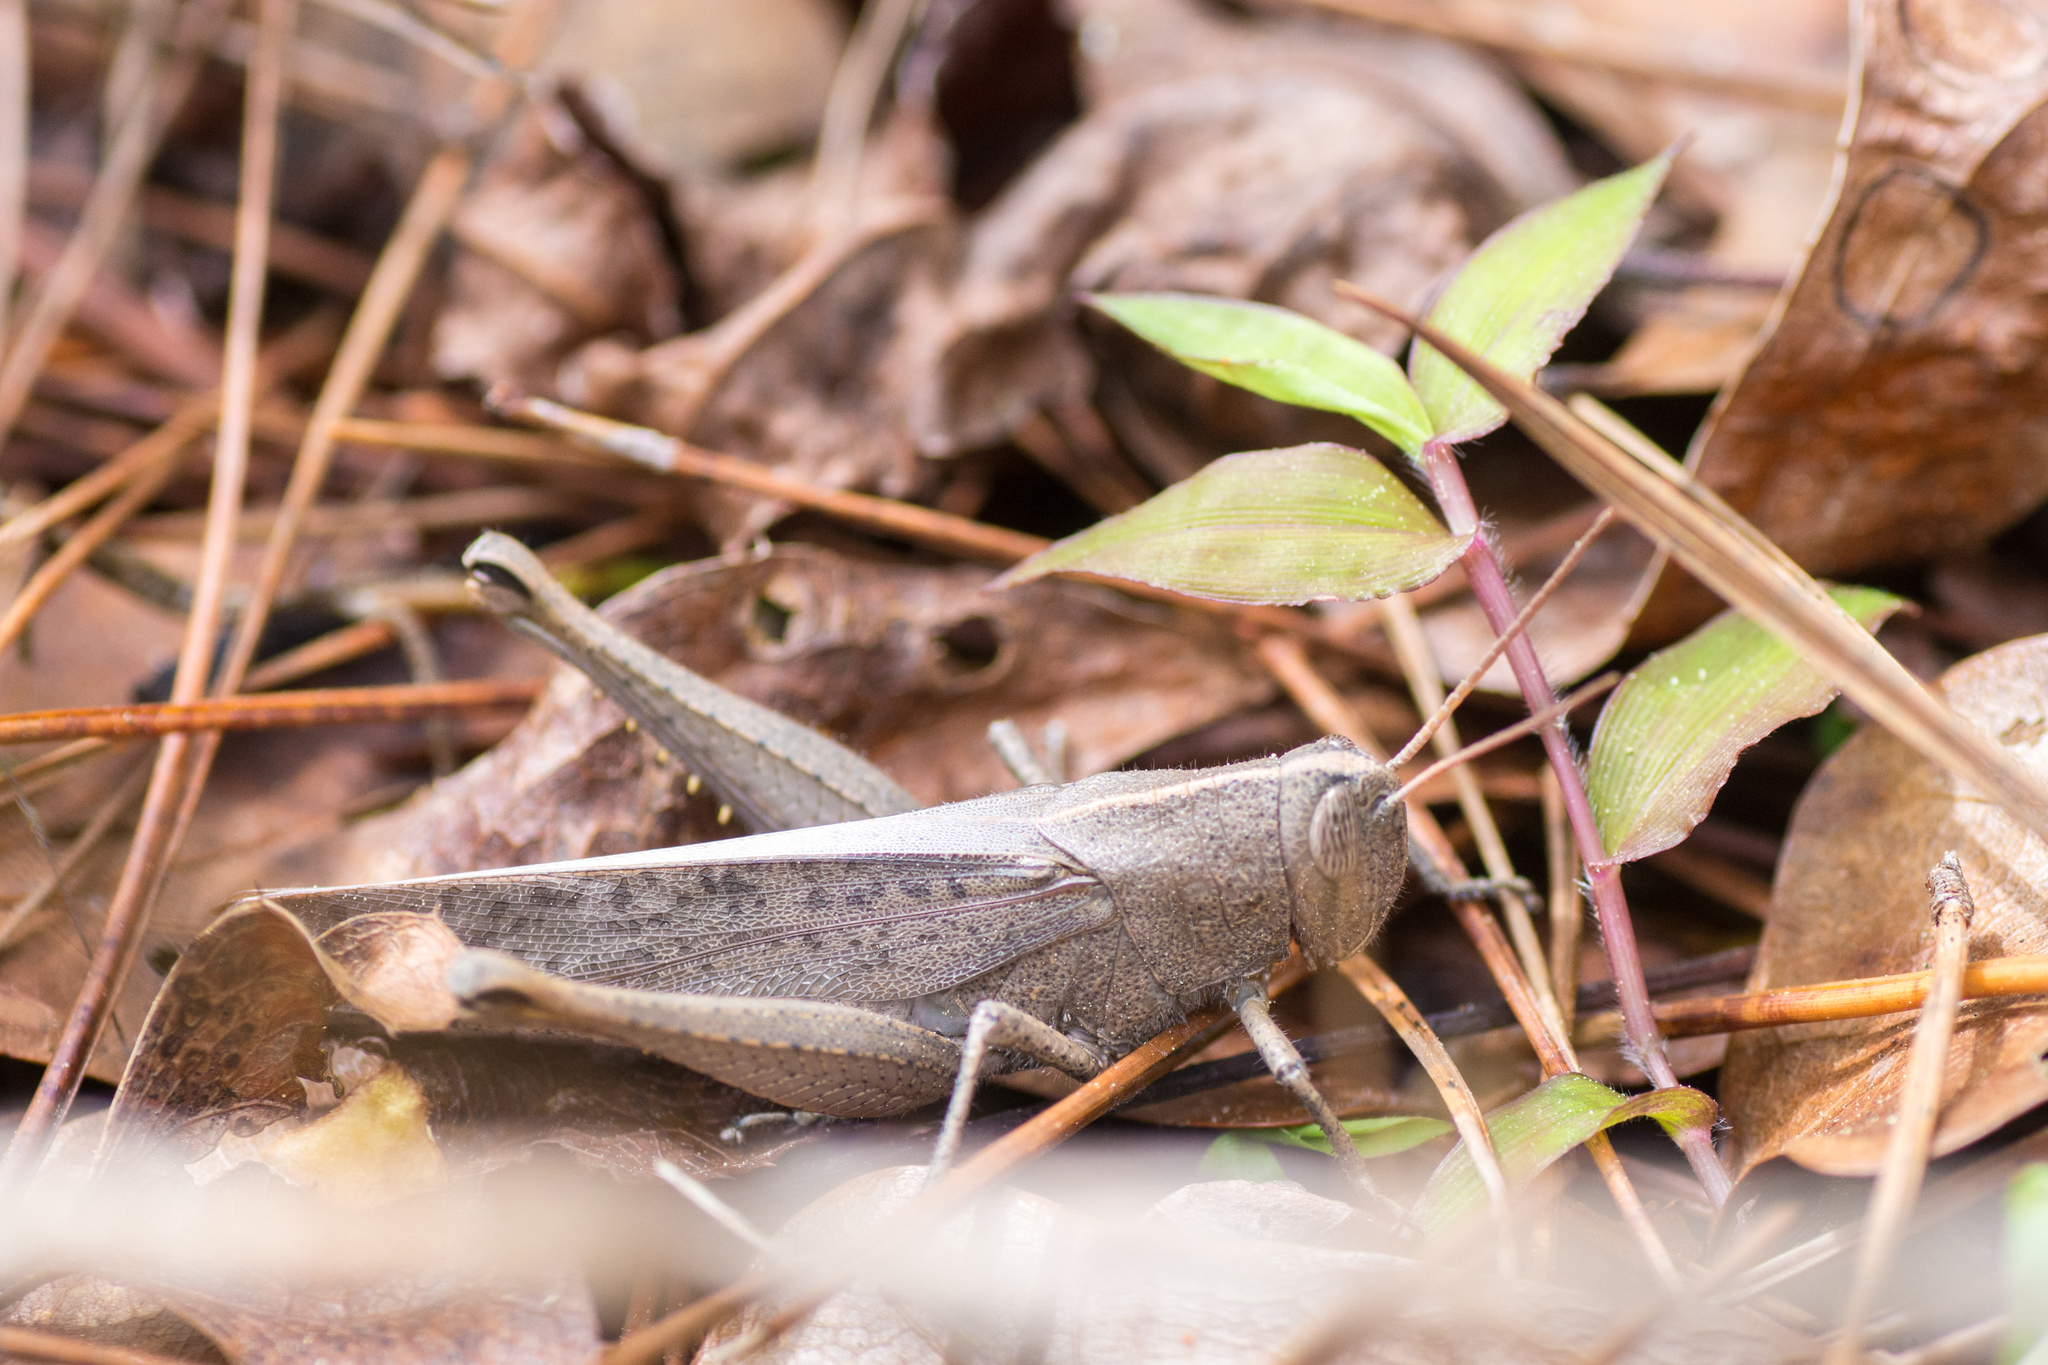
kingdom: Animalia
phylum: Arthropoda
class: Insecta
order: Orthoptera
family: Acrididae
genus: Schistocerca
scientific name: Schistocerca damnifica
